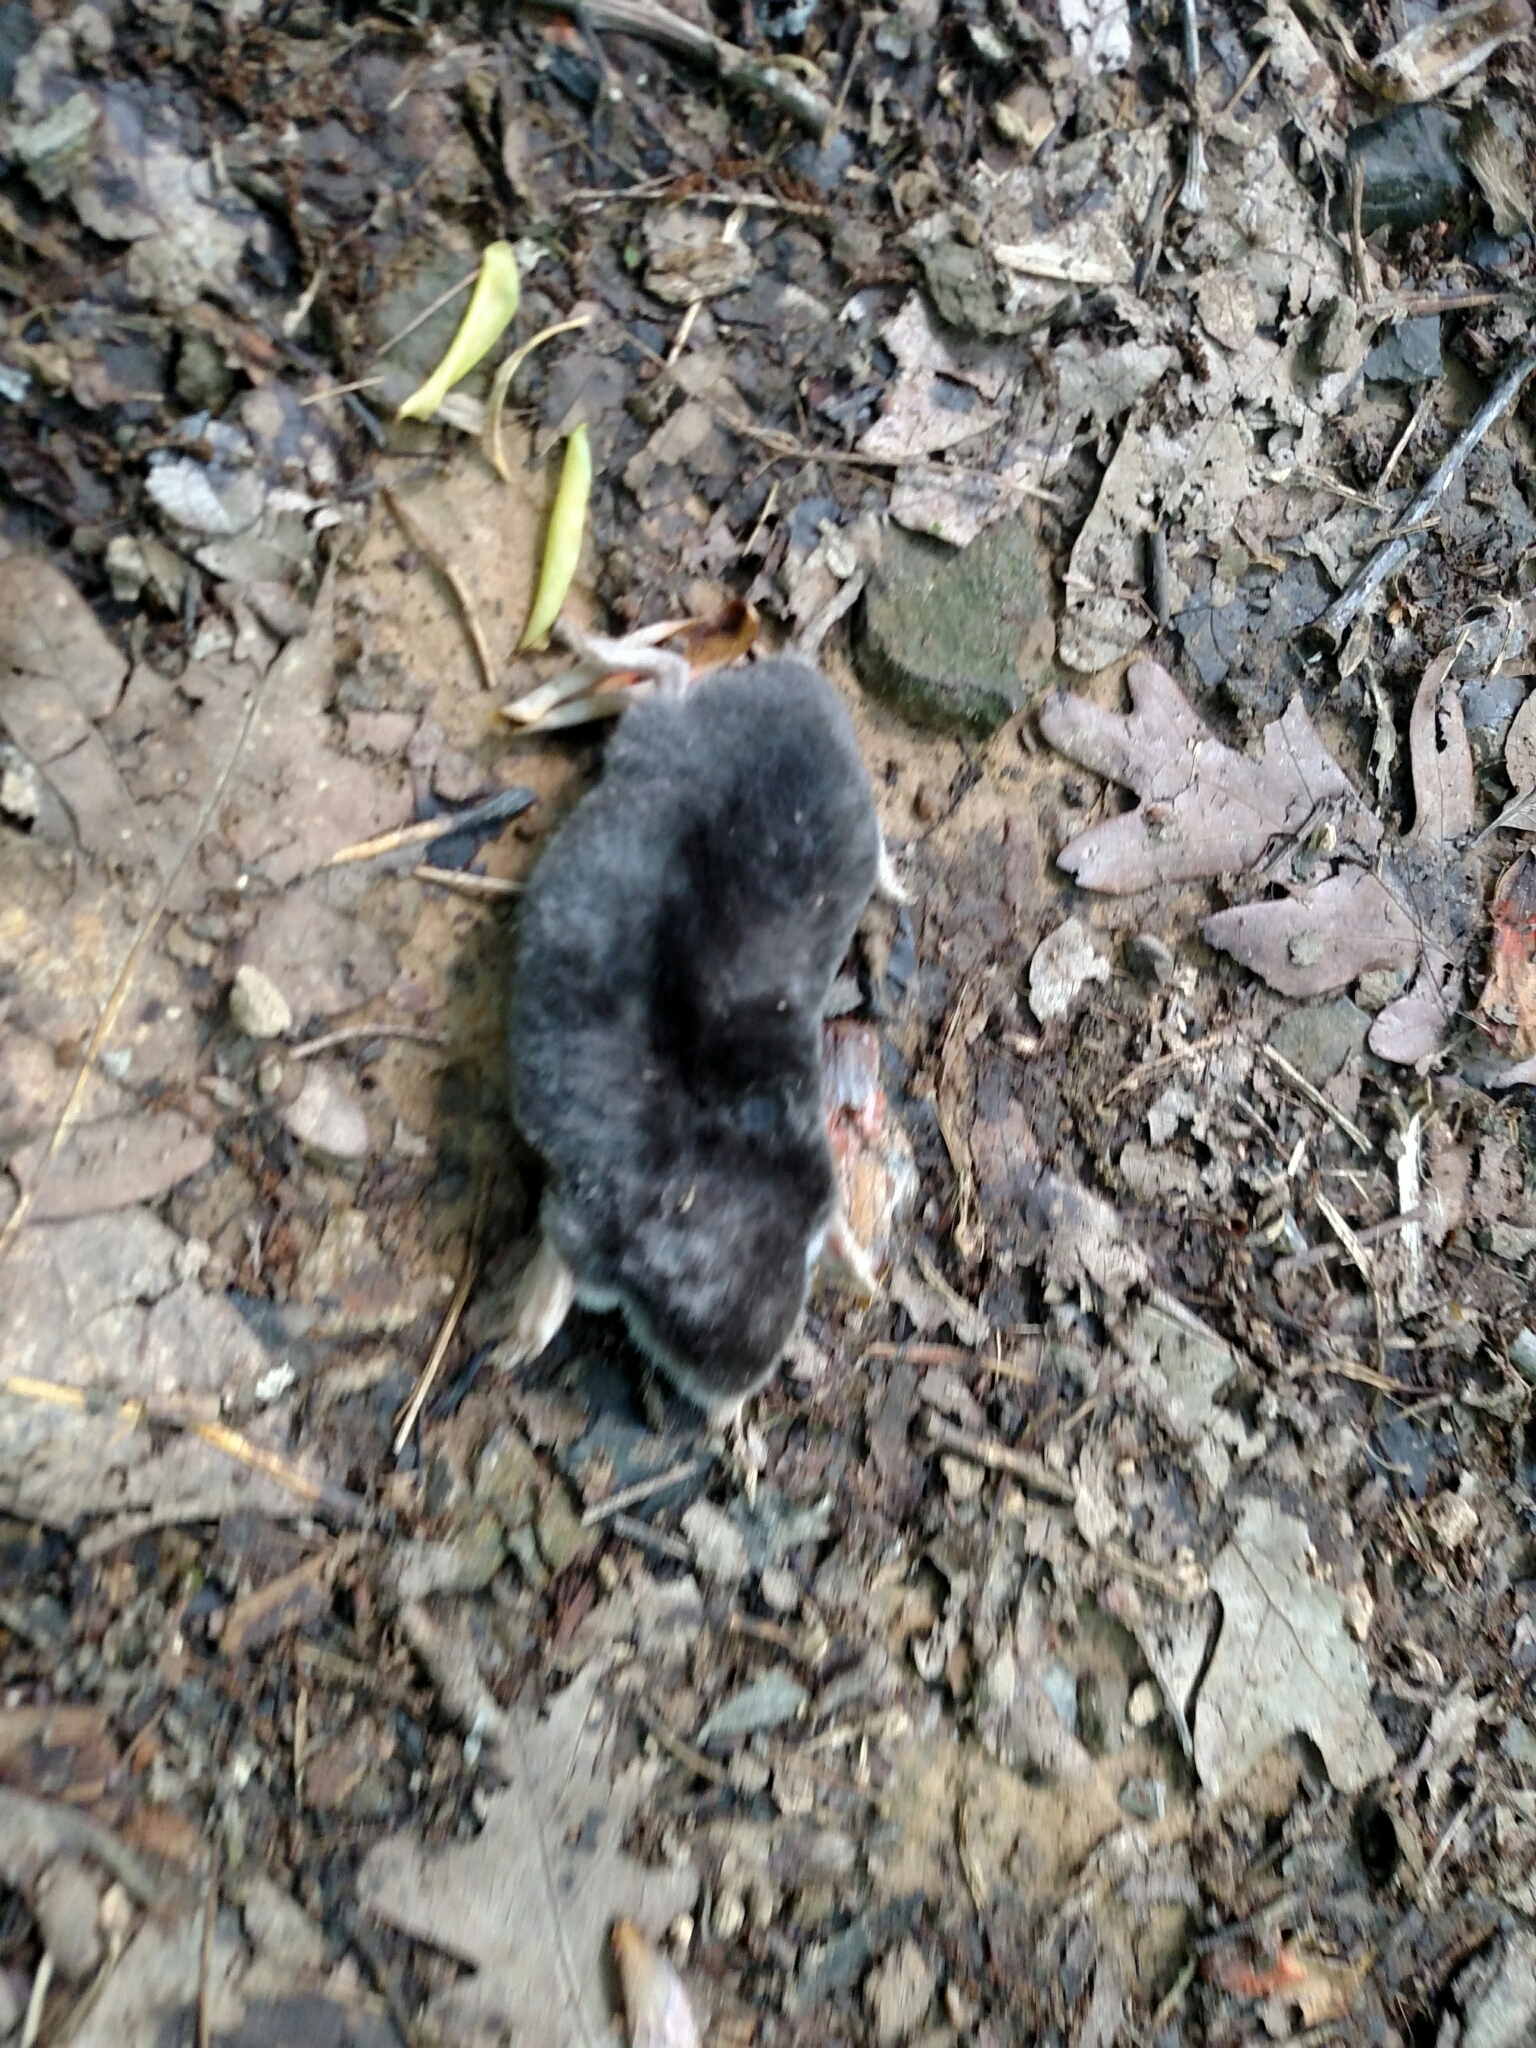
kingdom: Animalia
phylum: Chordata
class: Mammalia
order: Soricomorpha
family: Talpidae
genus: Scalopus
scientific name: Scalopus aquaticus
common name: Eastern mole
